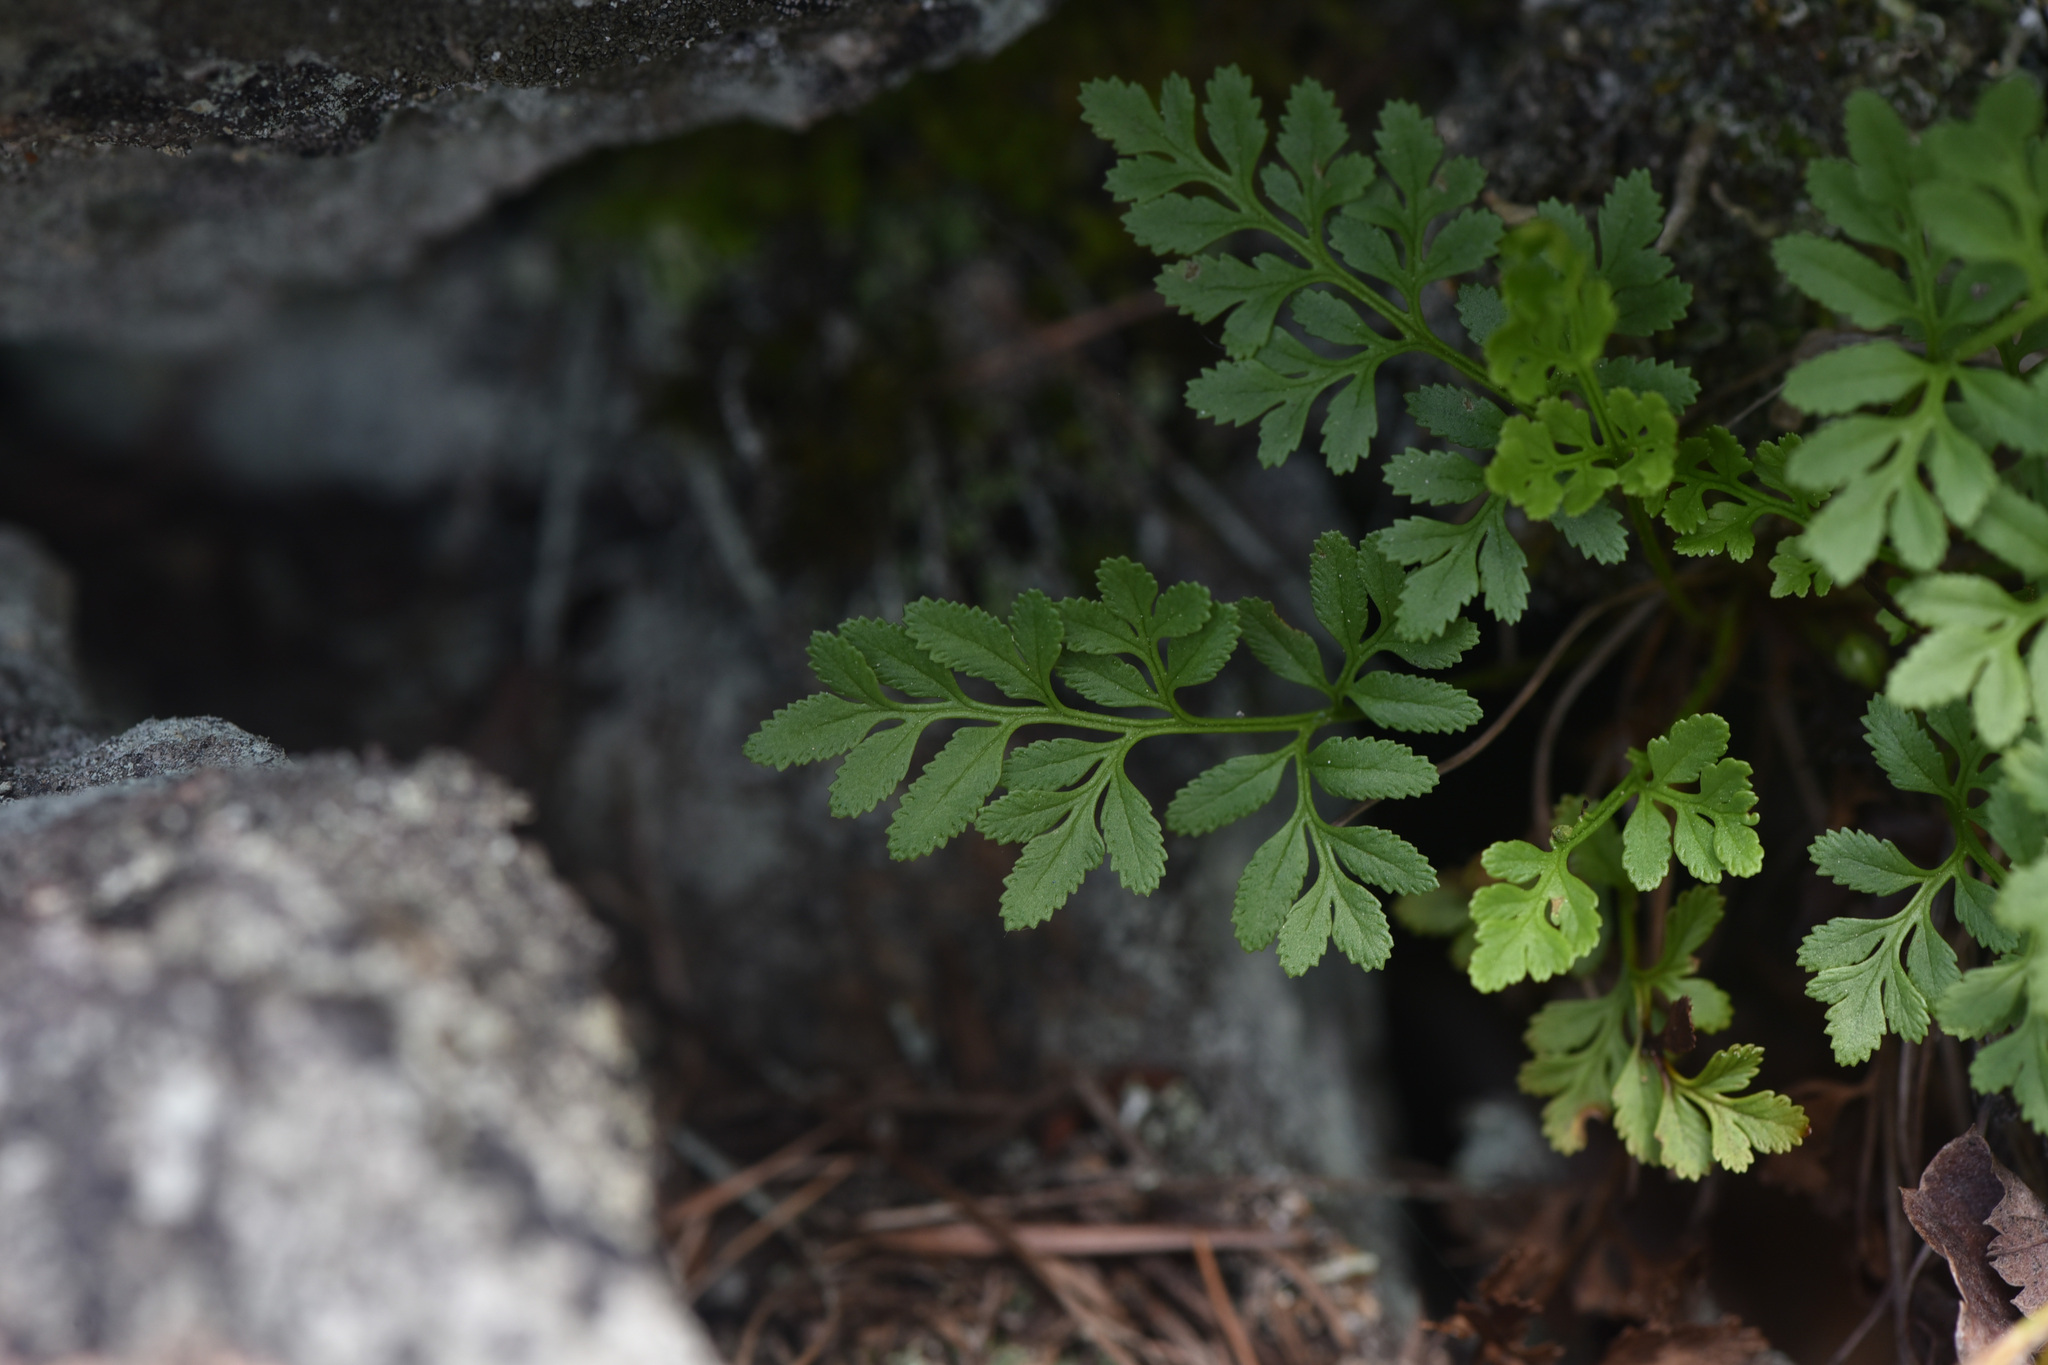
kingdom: Plantae
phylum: Tracheophyta
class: Polypodiopsida
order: Polypodiales
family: Pteridaceae
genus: Cryptogramma
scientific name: Cryptogramma acrostichoides
